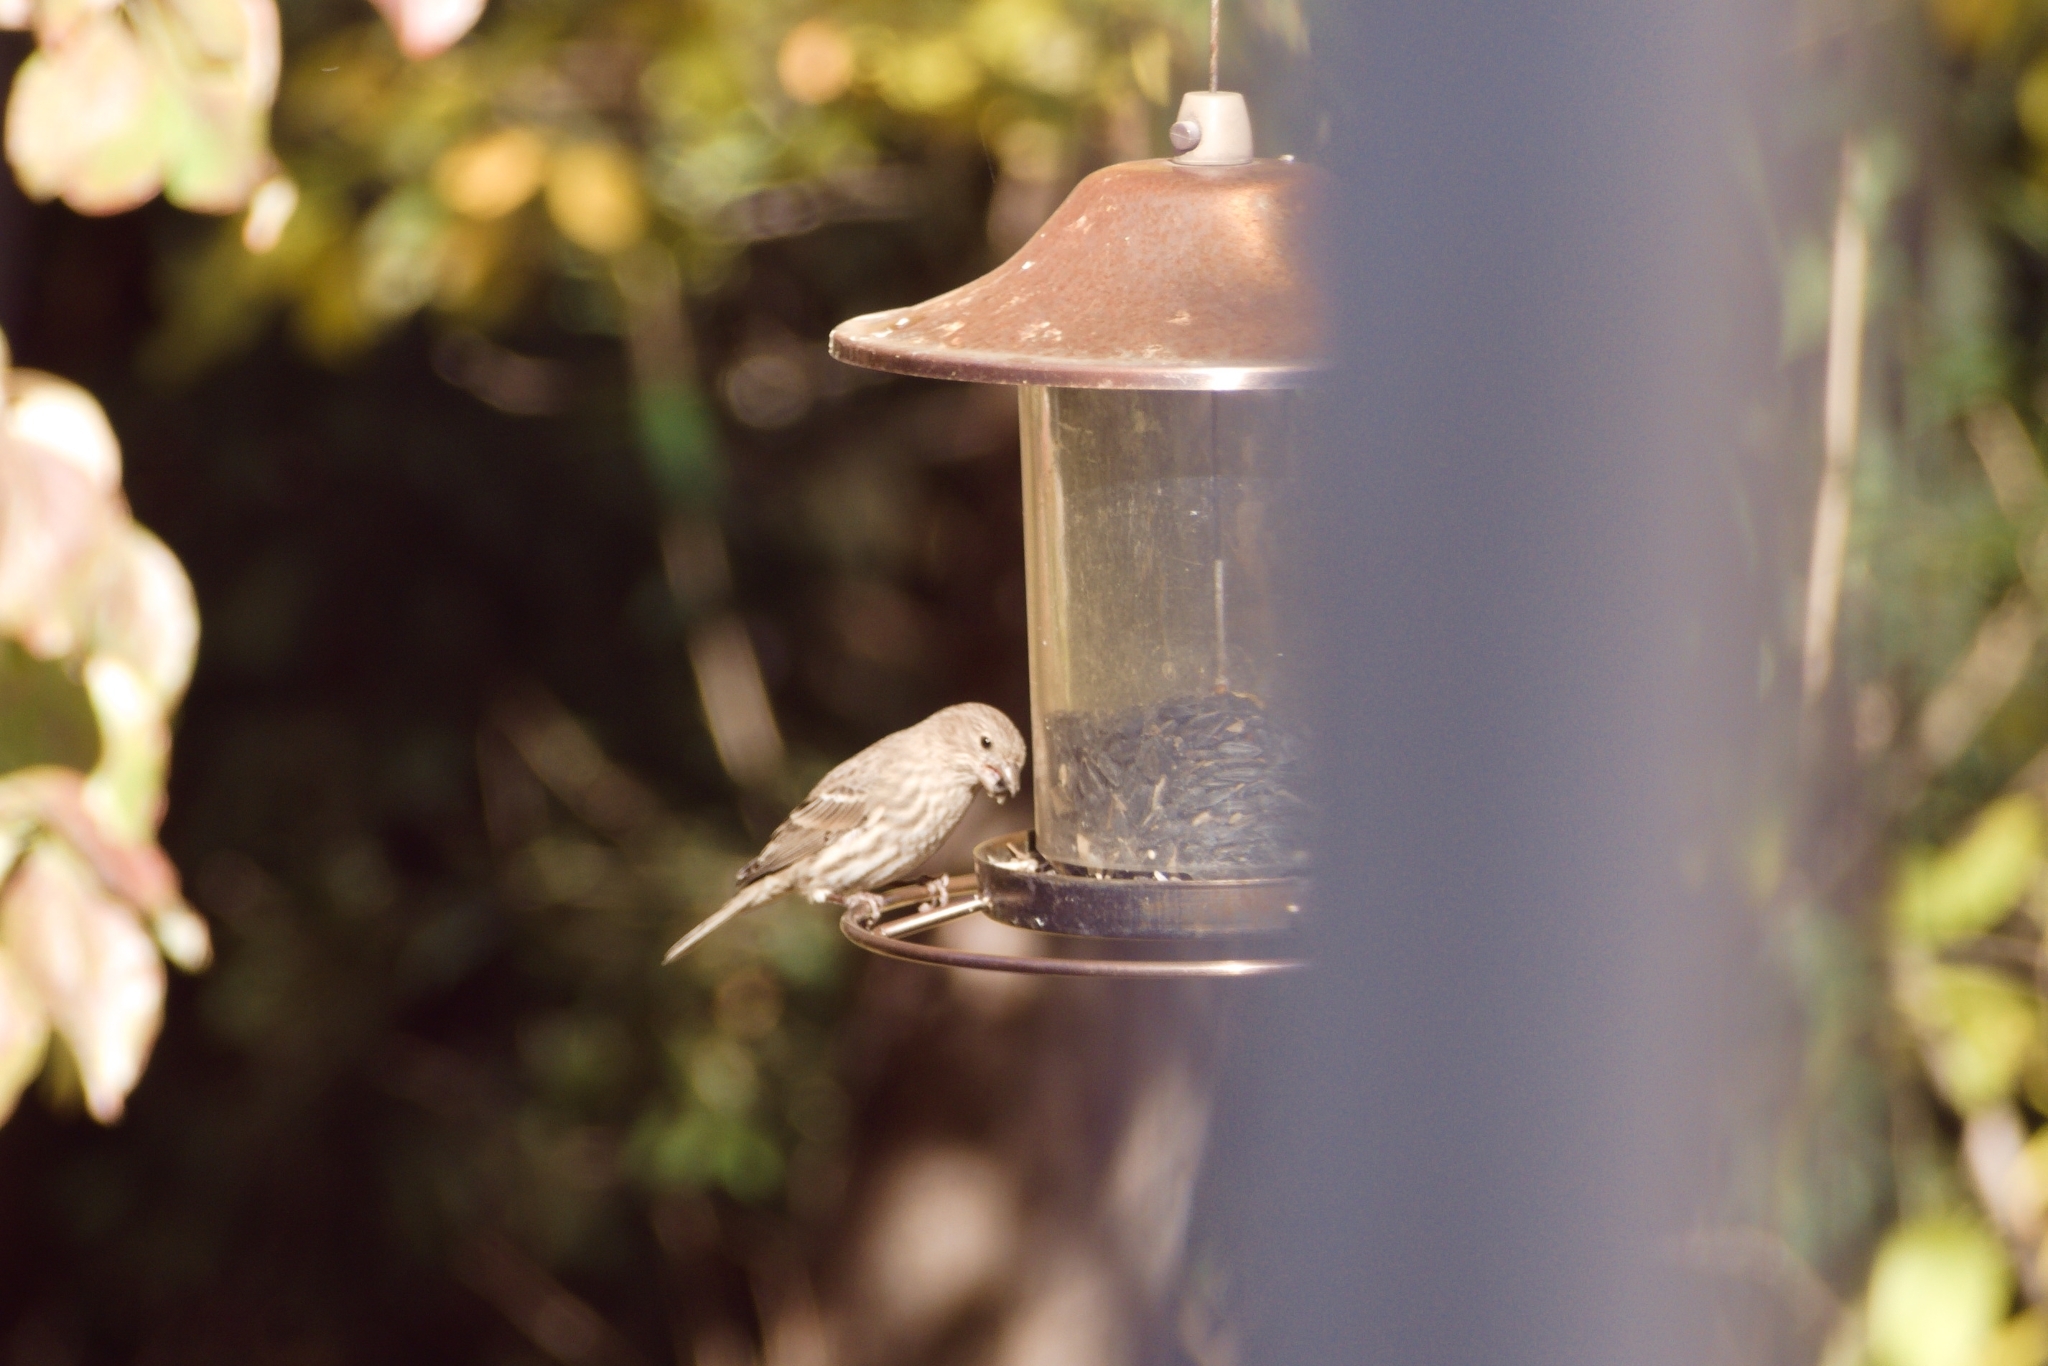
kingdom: Animalia
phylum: Chordata
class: Aves
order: Passeriformes
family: Fringillidae
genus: Haemorhous
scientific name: Haemorhous mexicanus
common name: House finch
